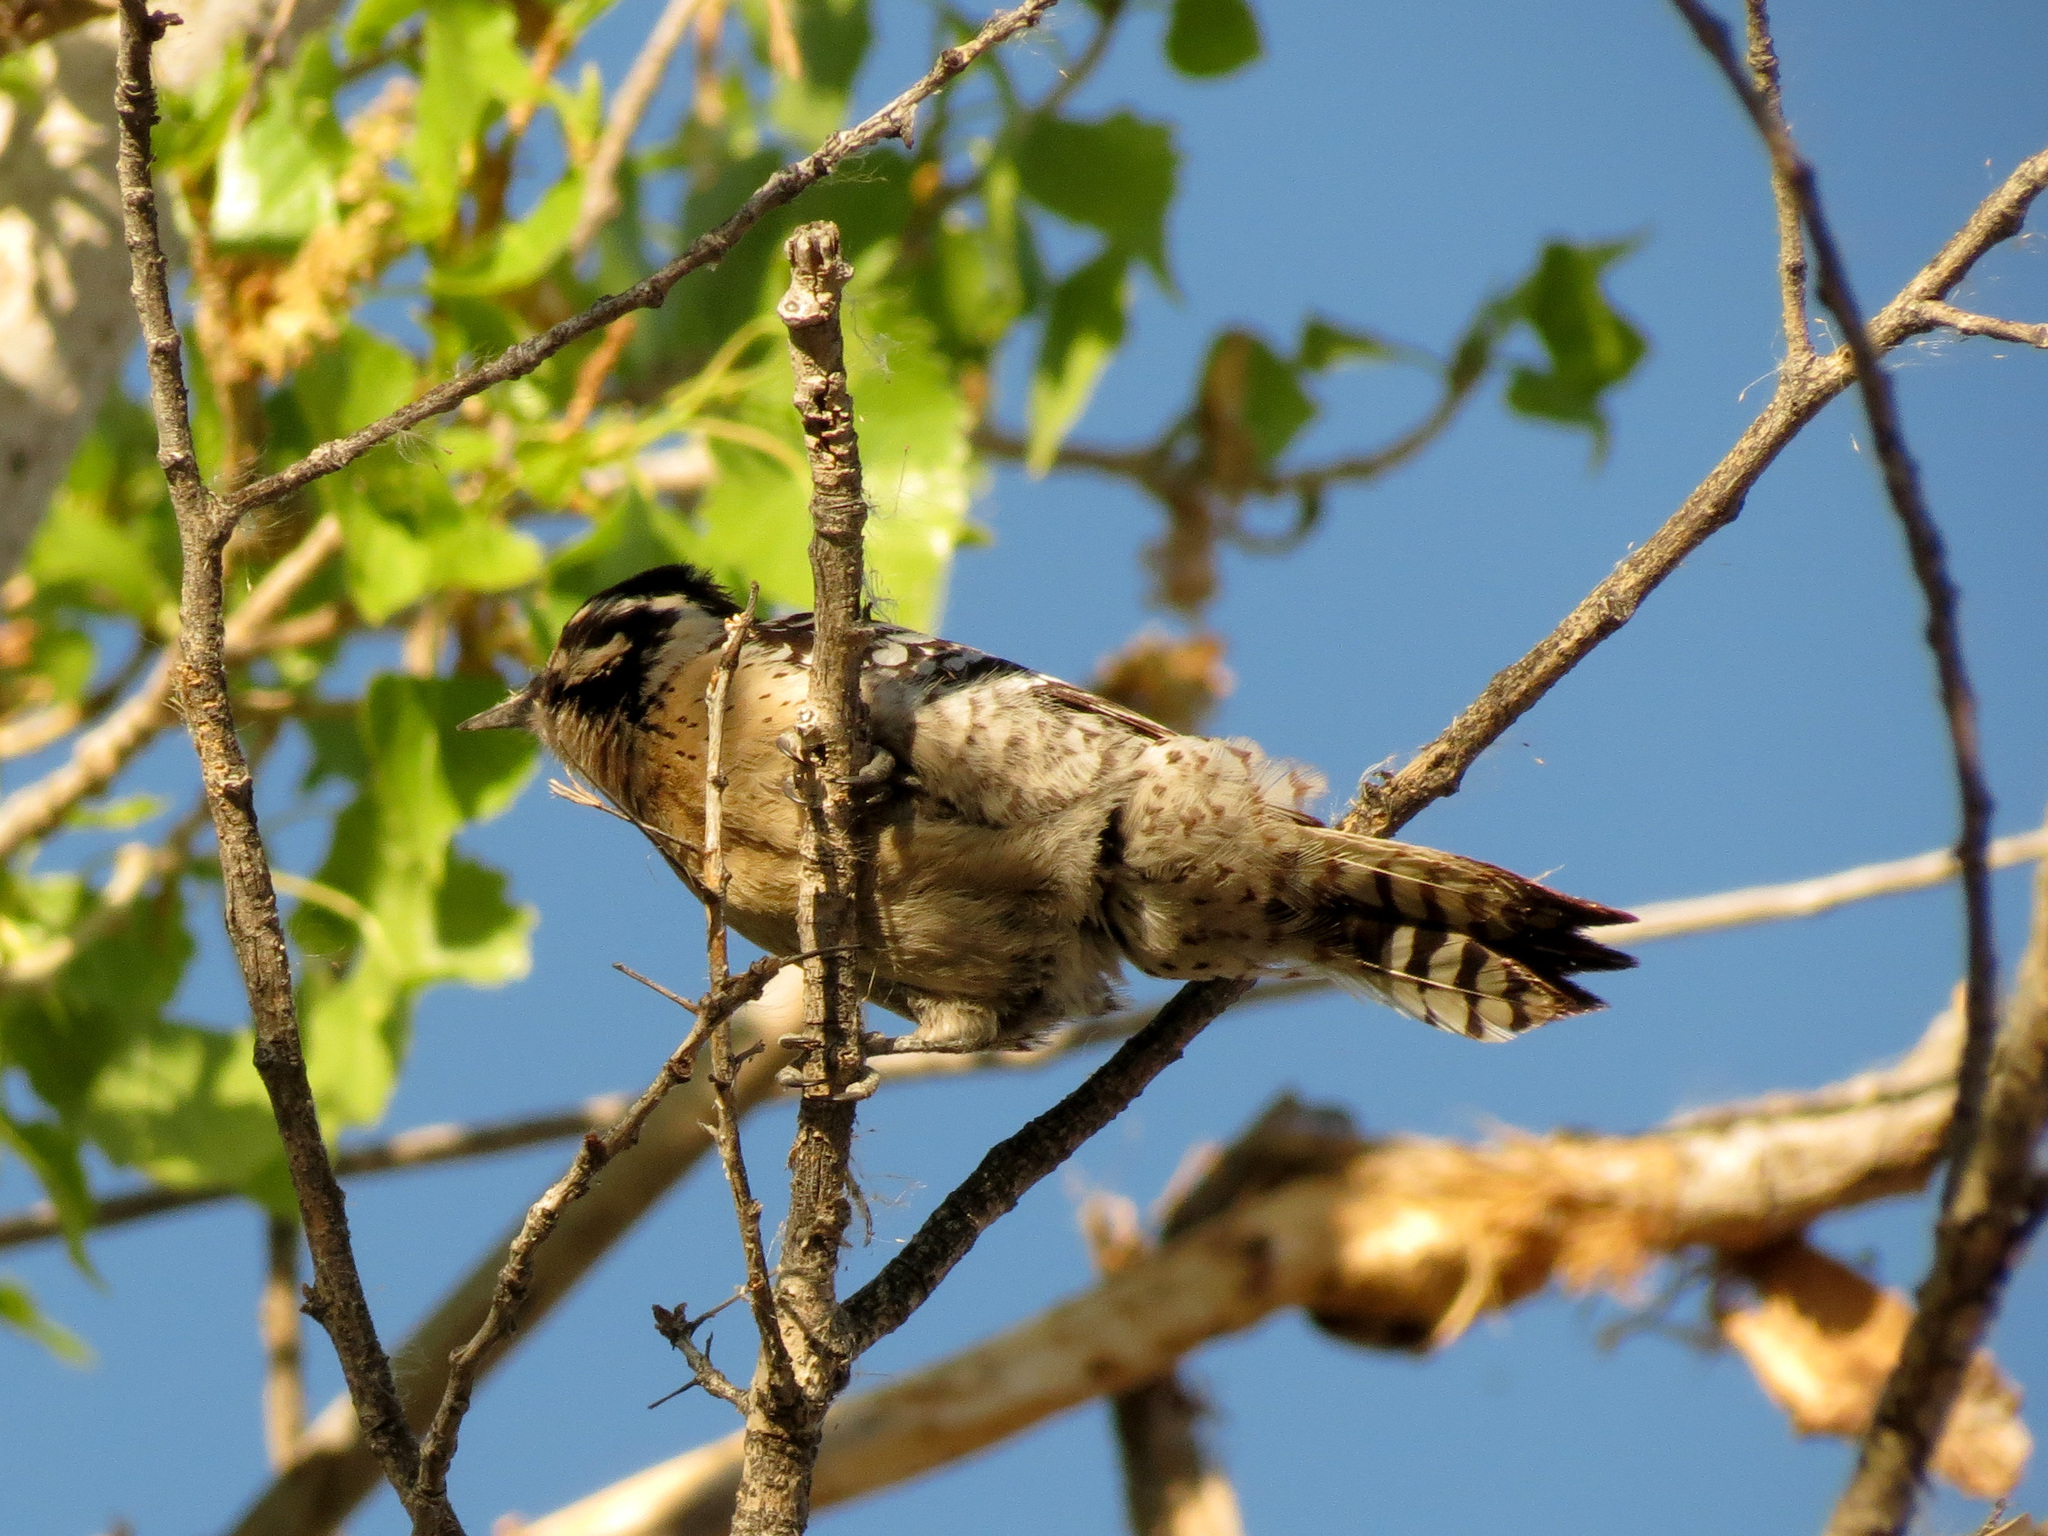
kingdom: Animalia
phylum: Chordata
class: Aves
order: Piciformes
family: Picidae
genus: Dryobates
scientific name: Dryobates scalaris
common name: Ladder-backed woodpecker
